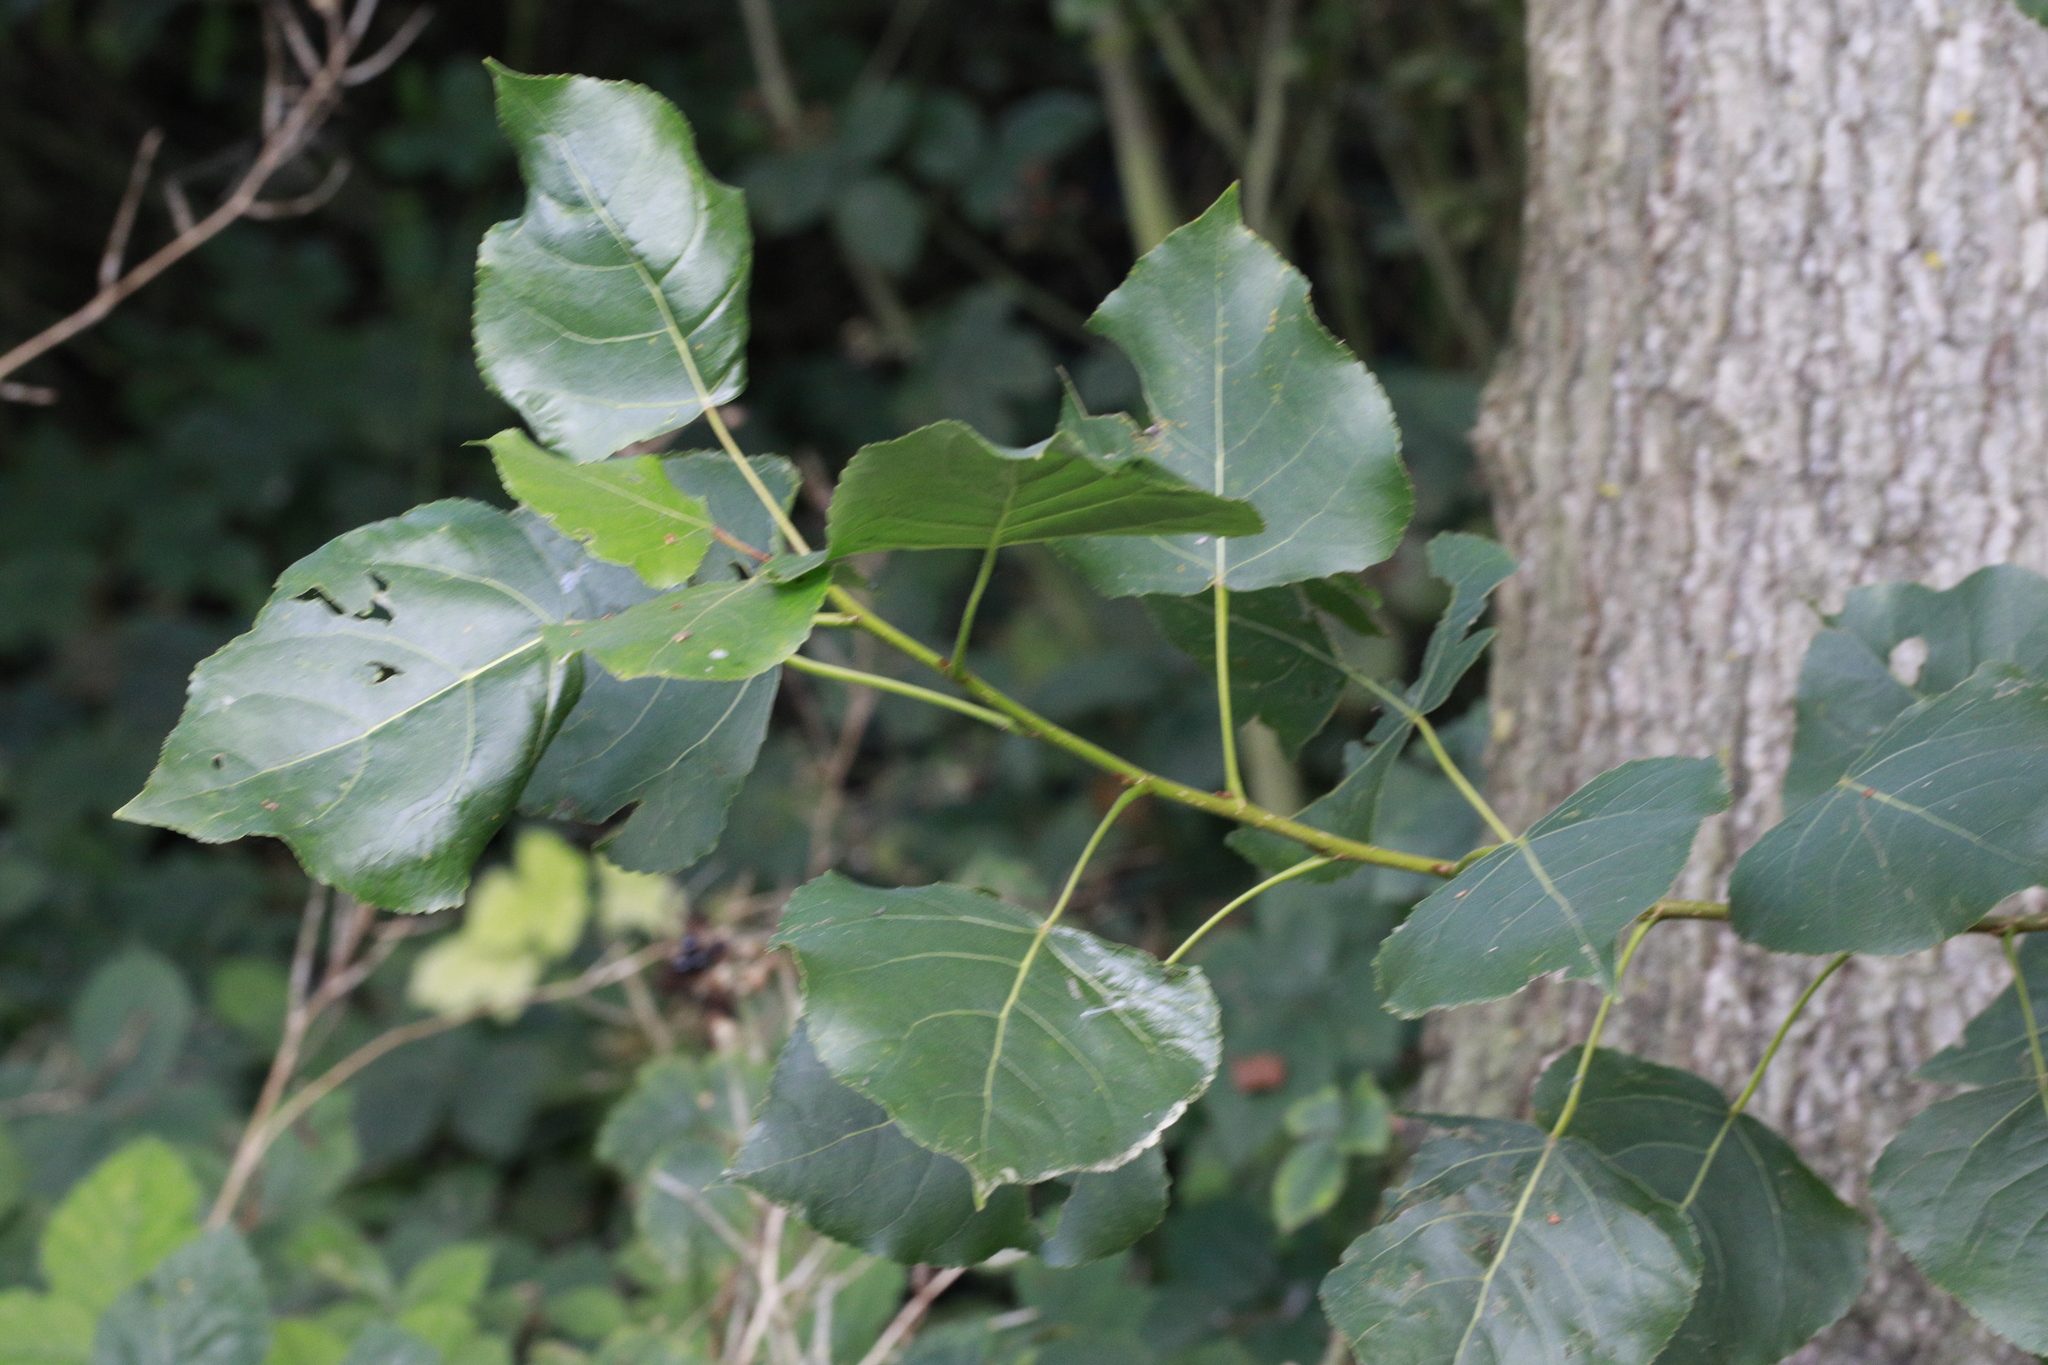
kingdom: Plantae
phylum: Tracheophyta
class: Magnoliopsida
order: Malpighiales
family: Salicaceae
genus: Populus
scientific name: Populus nigra
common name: Black poplar
